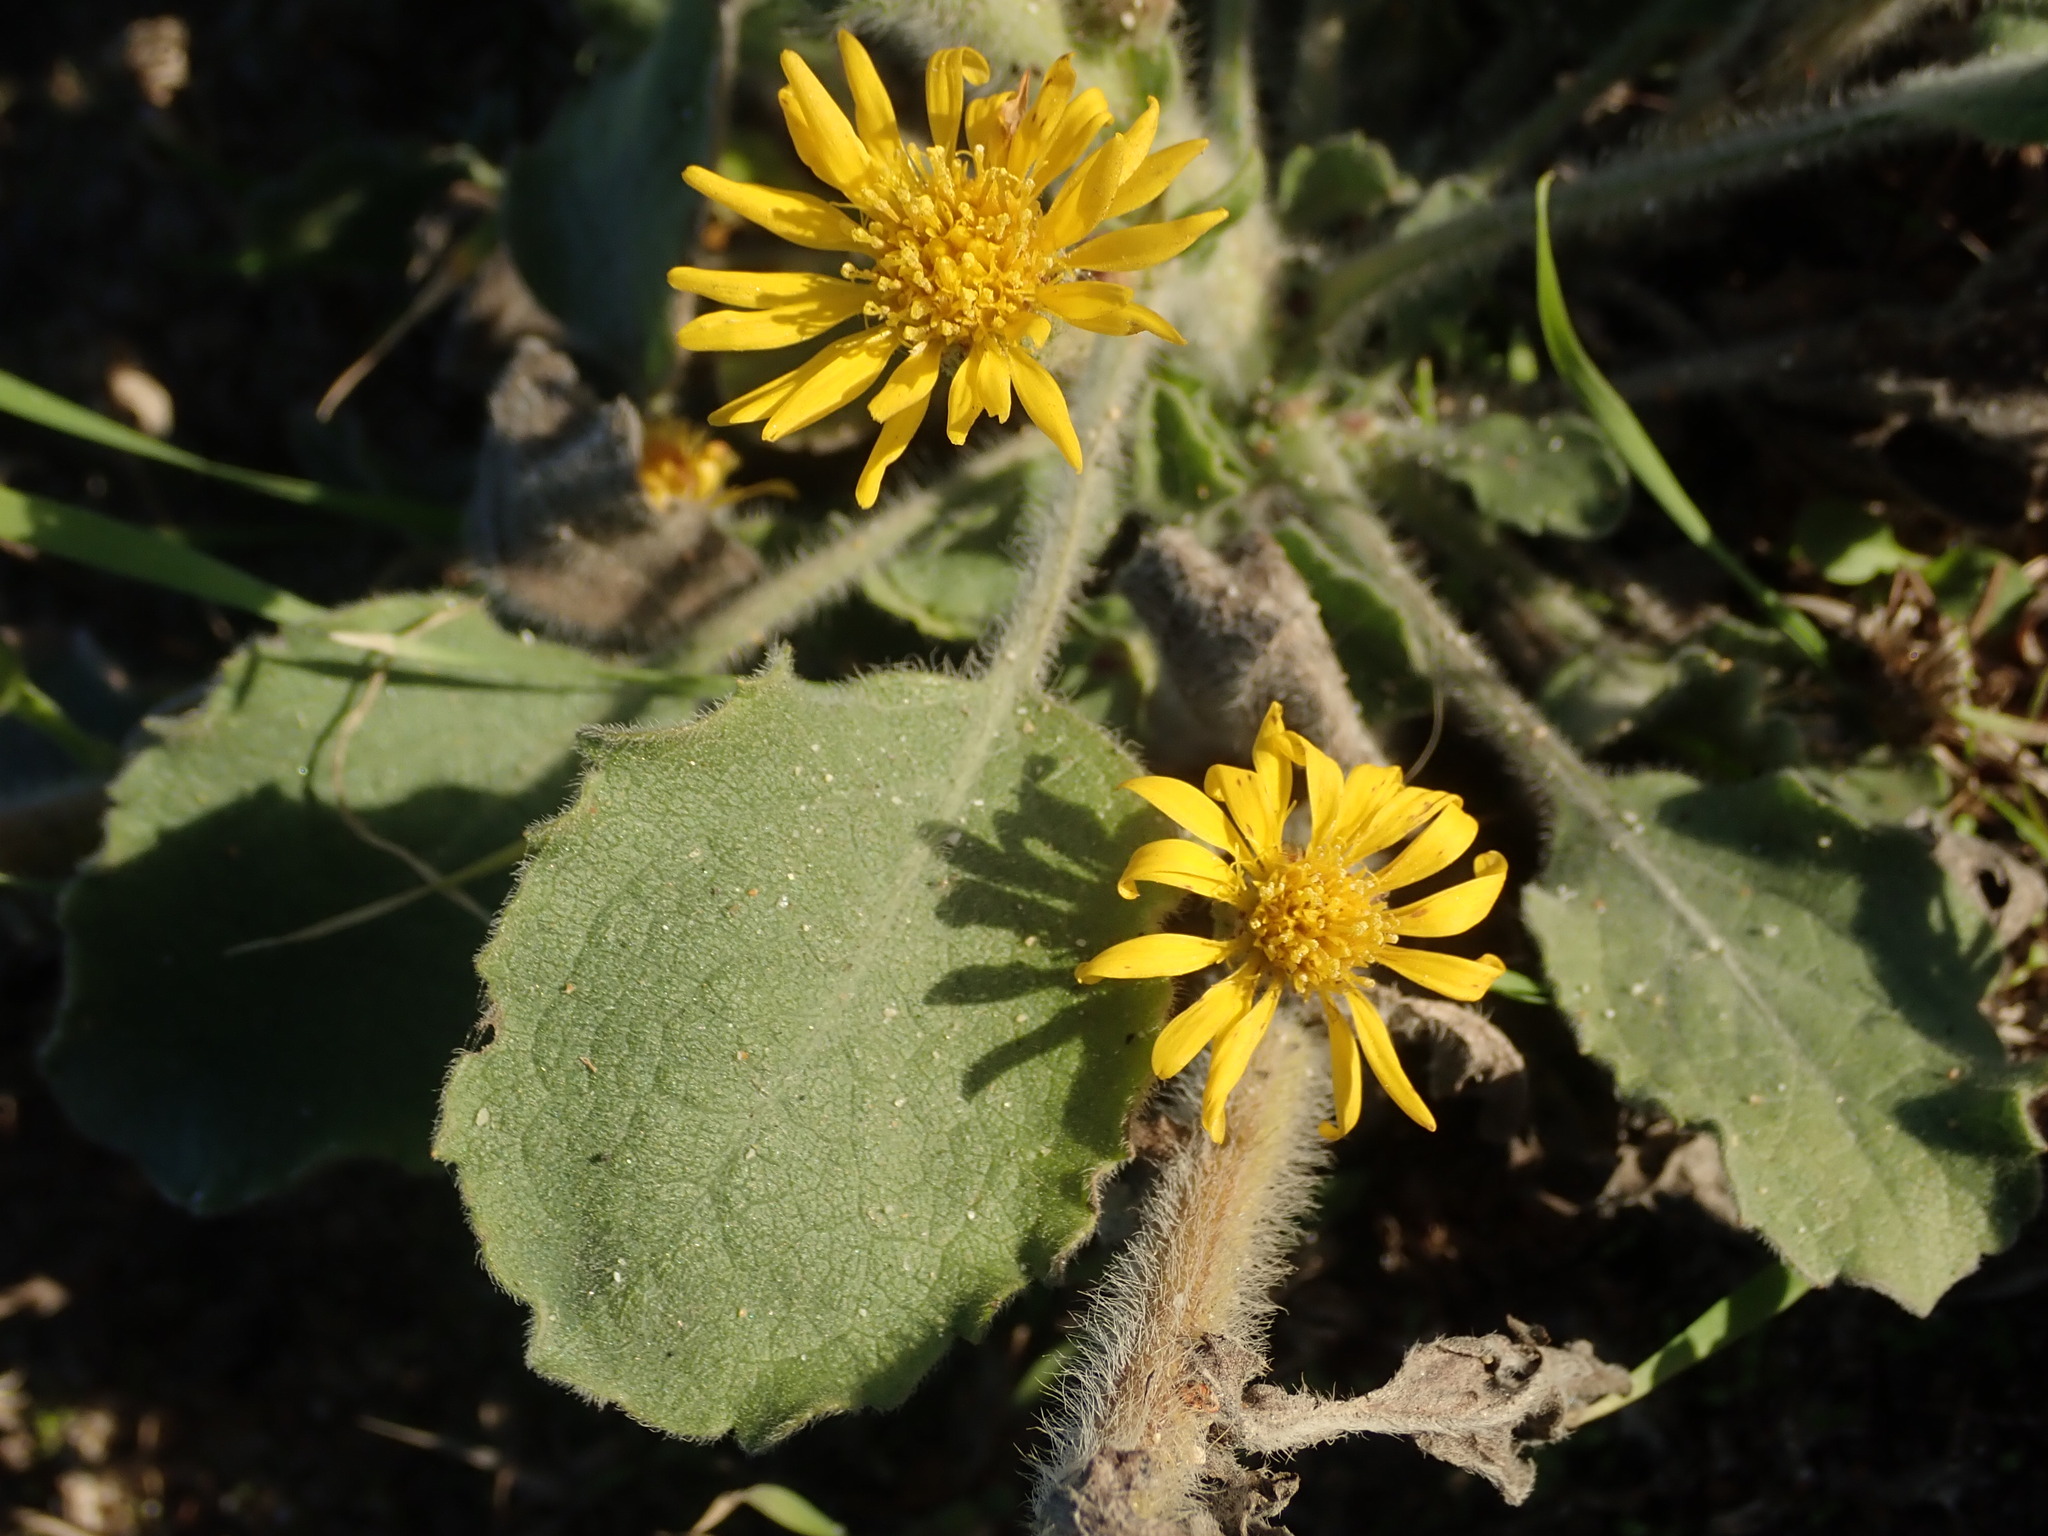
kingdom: Plantae
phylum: Tracheophyta
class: Magnoliopsida
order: Asterales
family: Asteraceae
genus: Heterotheca
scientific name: Heterotheca grandiflora
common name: Telegraphweed
